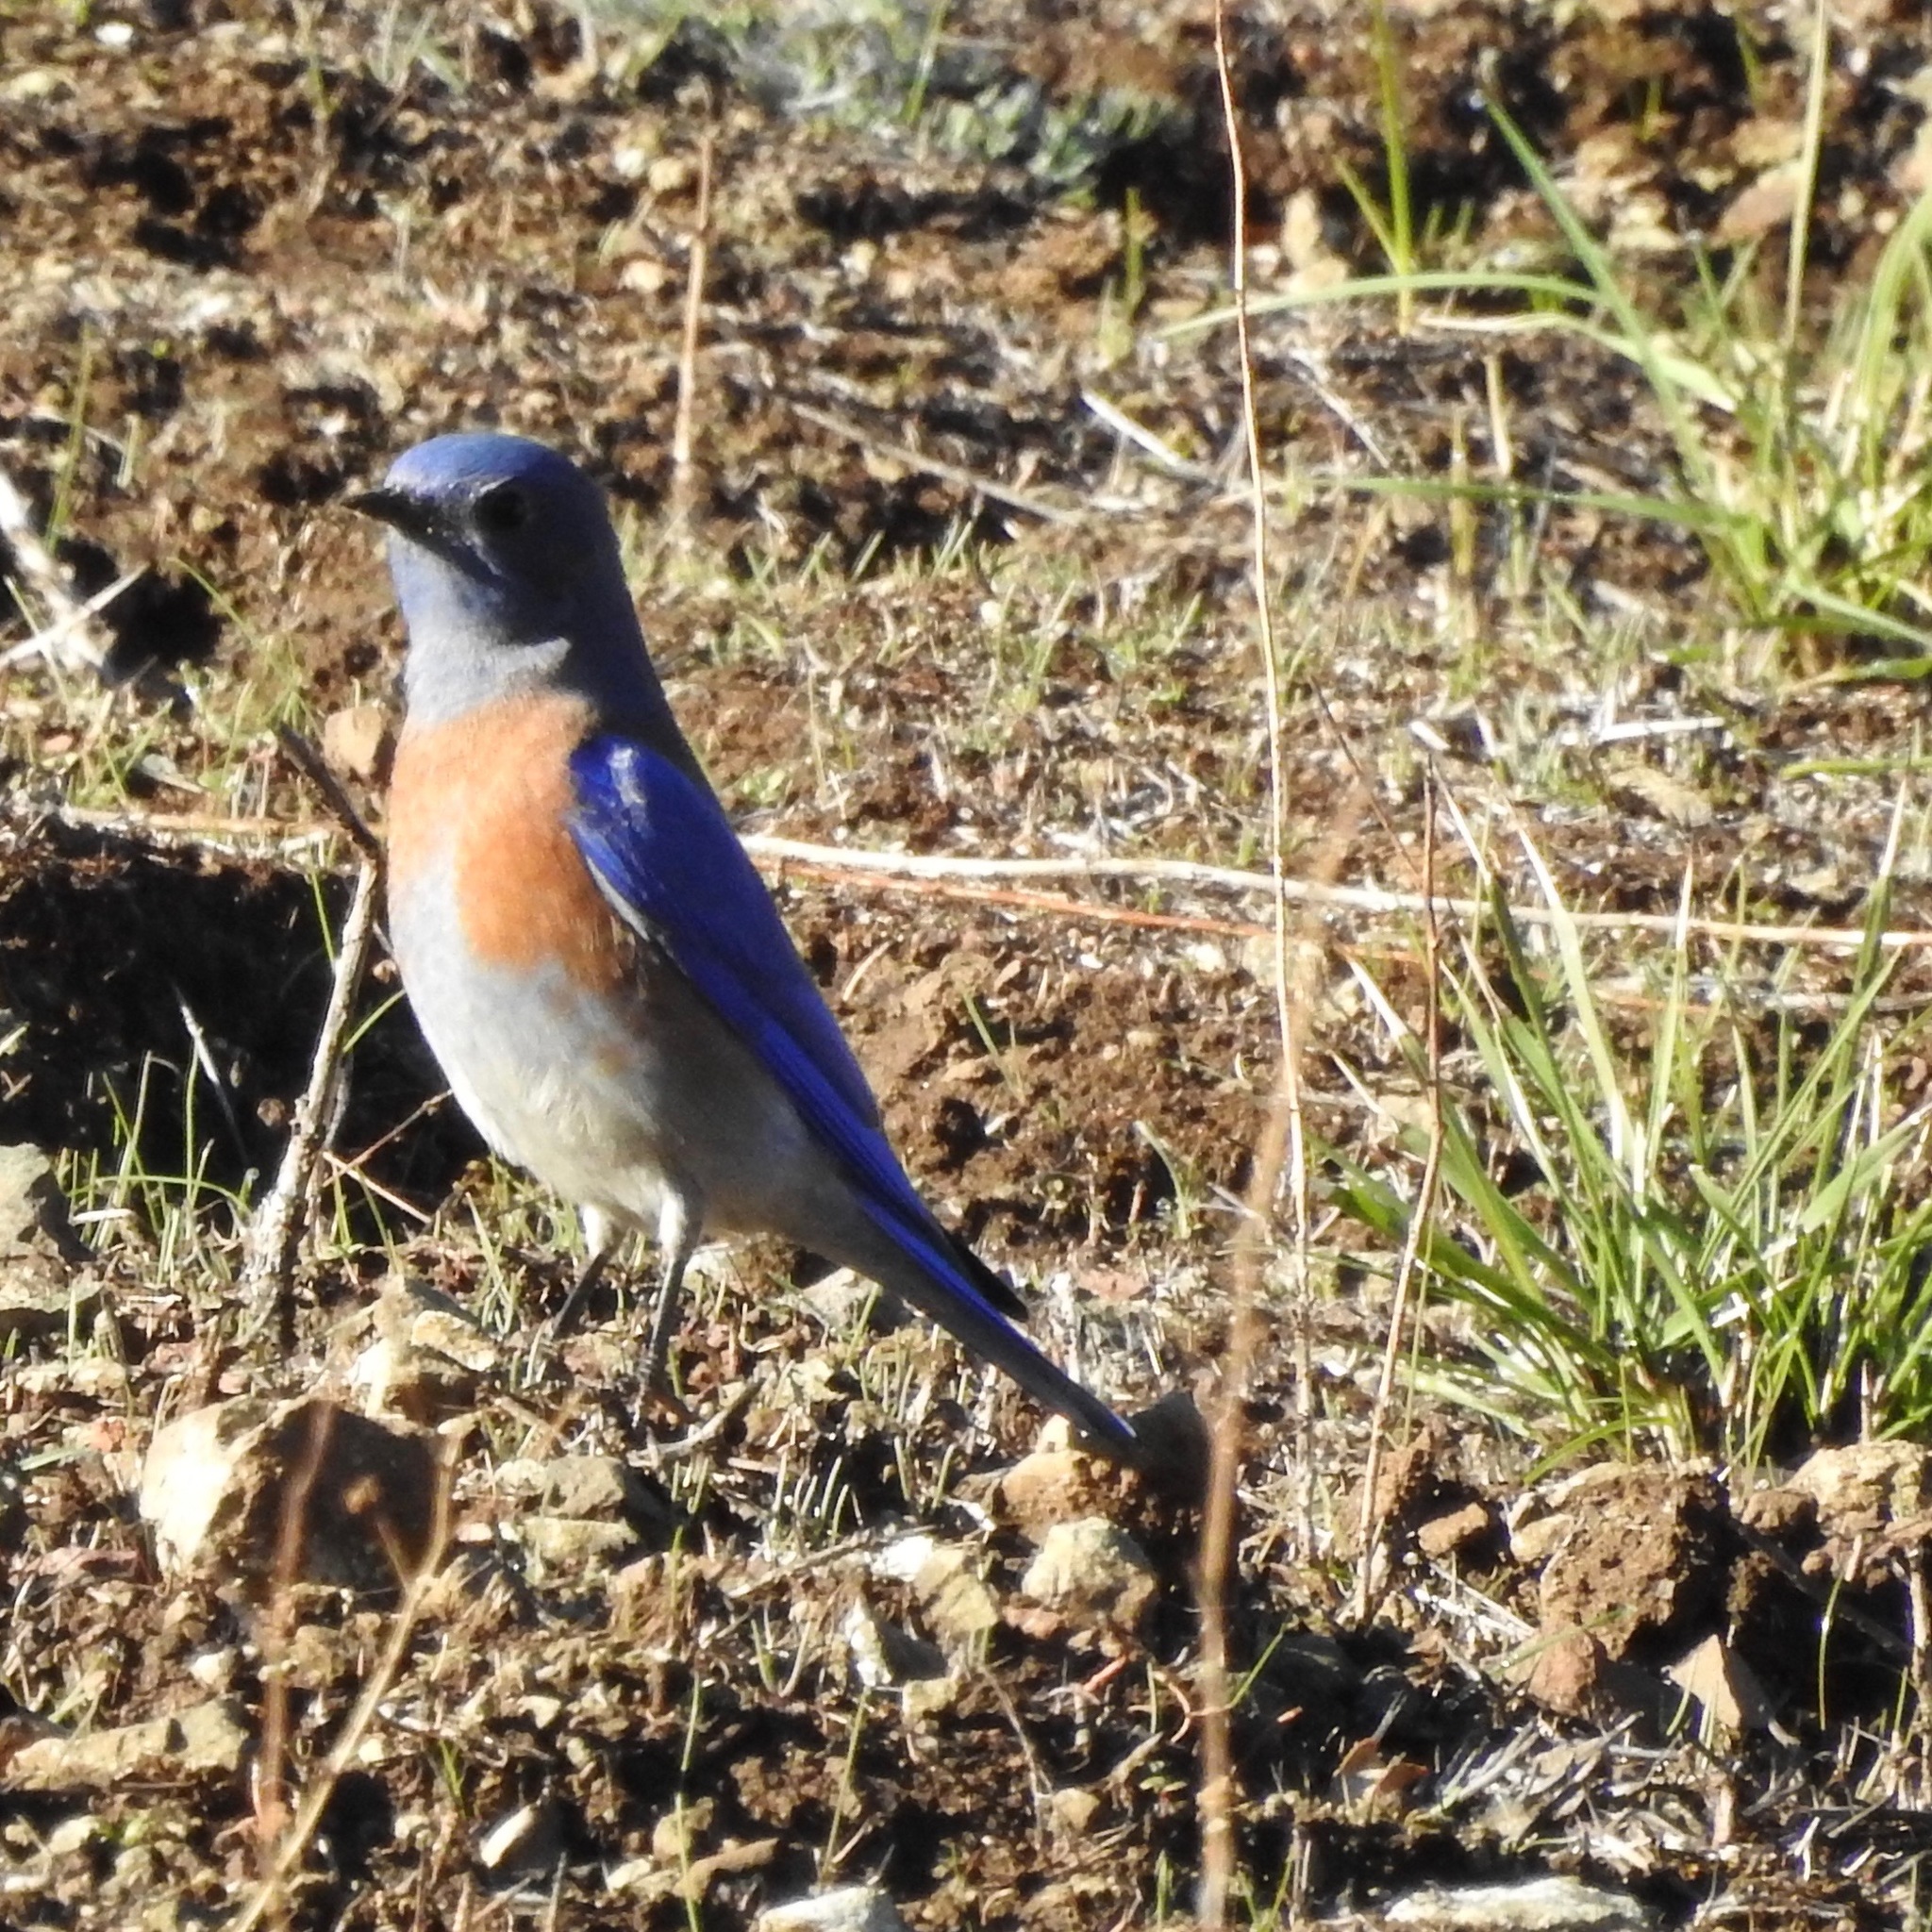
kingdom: Animalia
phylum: Chordata
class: Aves
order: Passeriformes
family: Turdidae
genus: Sialia
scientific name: Sialia mexicana
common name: Western bluebird
